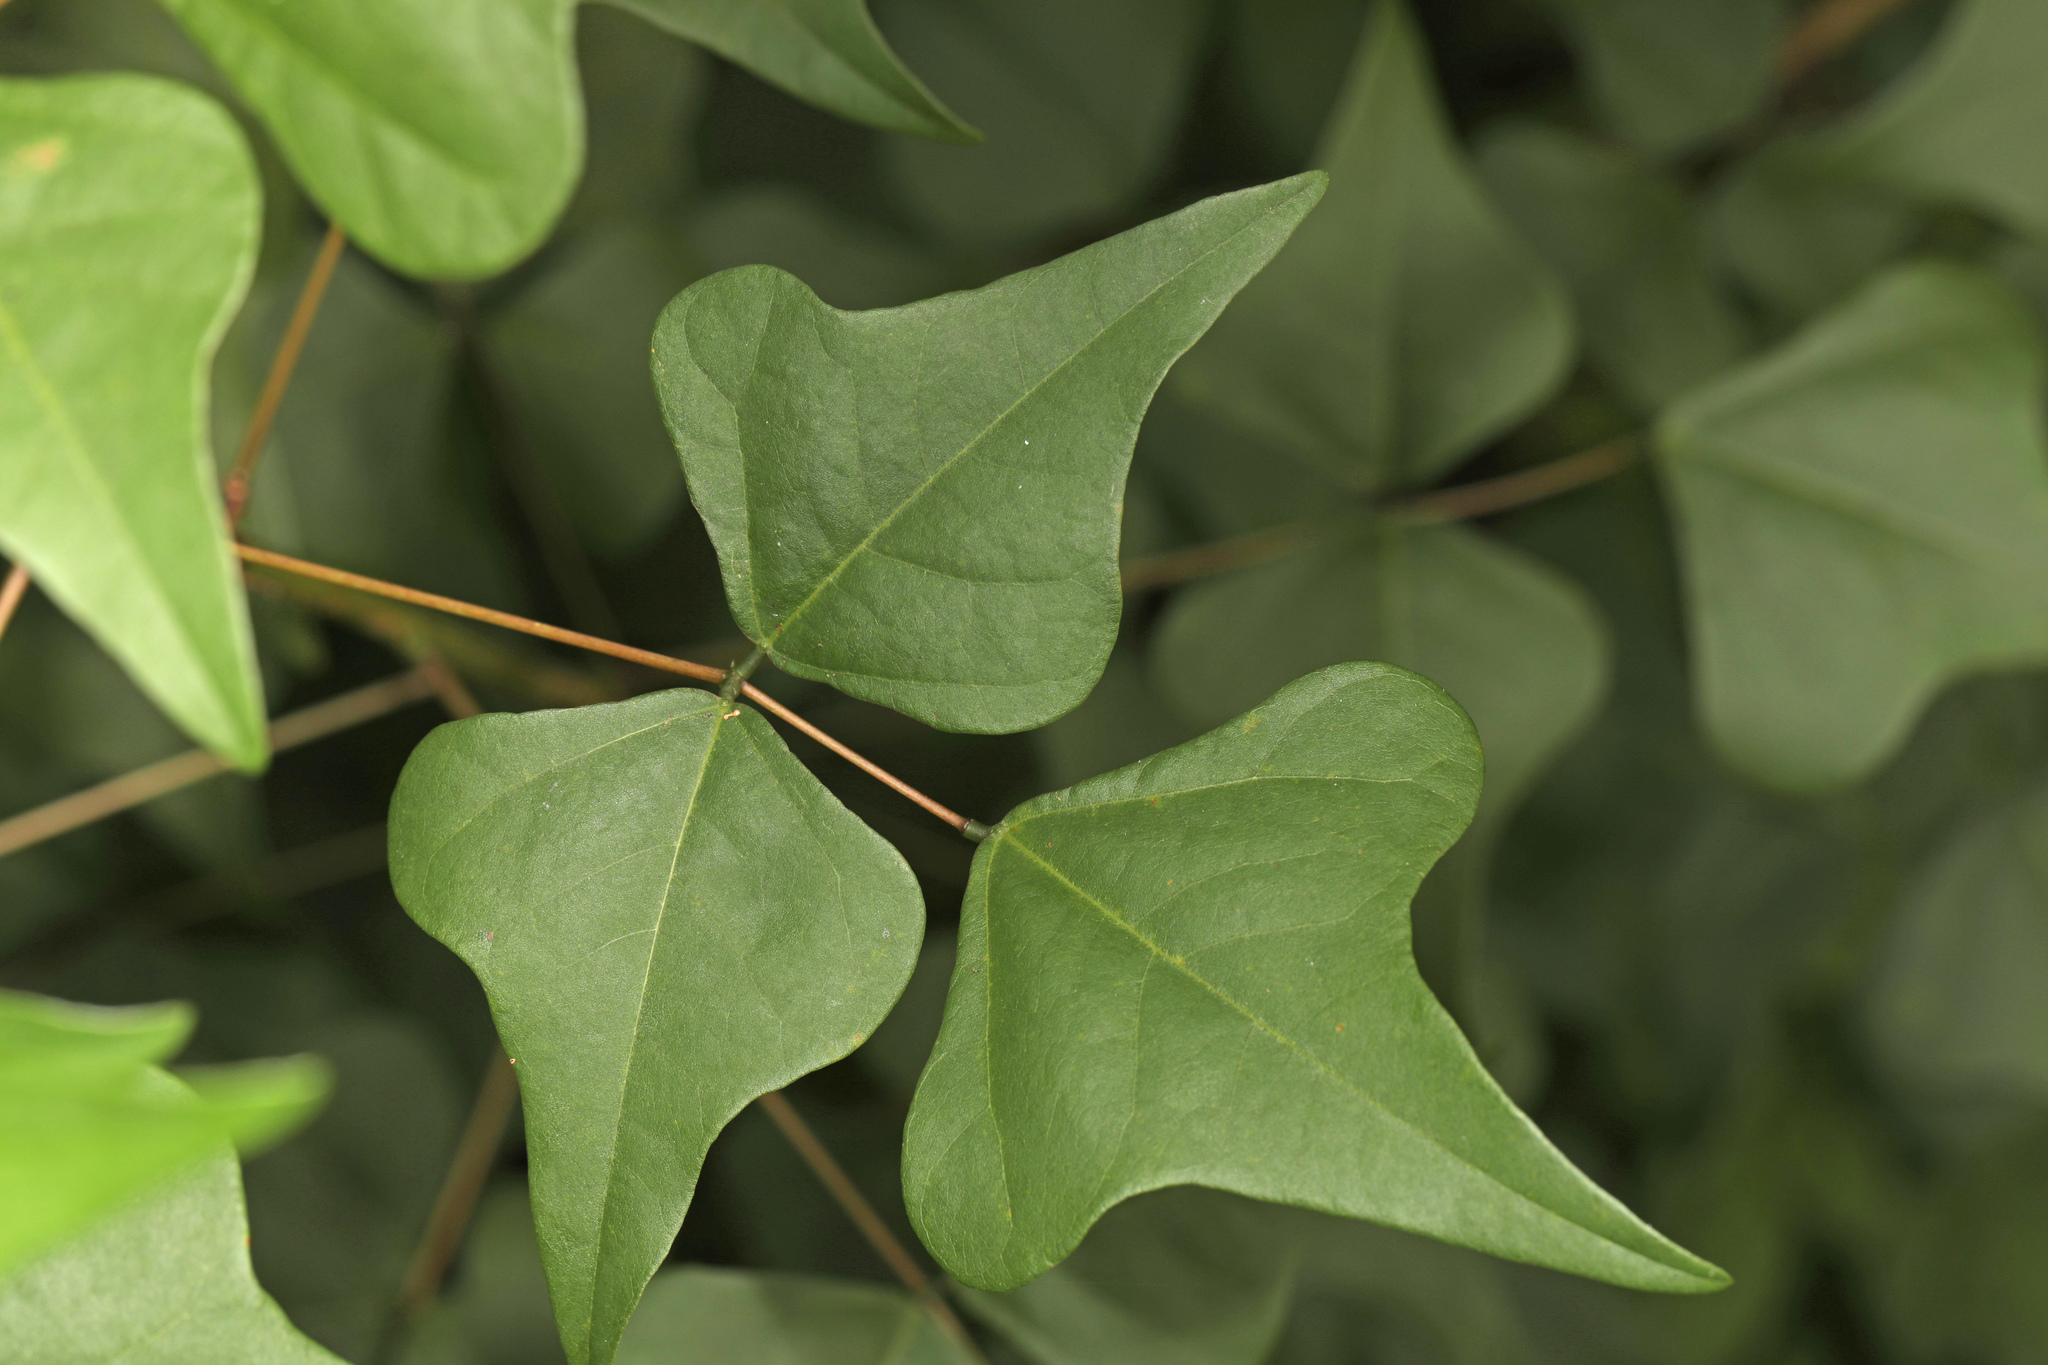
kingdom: Plantae
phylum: Tracheophyta
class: Magnoliopsida
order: Fabales
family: Fabaceae
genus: Erythrina
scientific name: Erythrina herbacea
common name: Coral-bean
